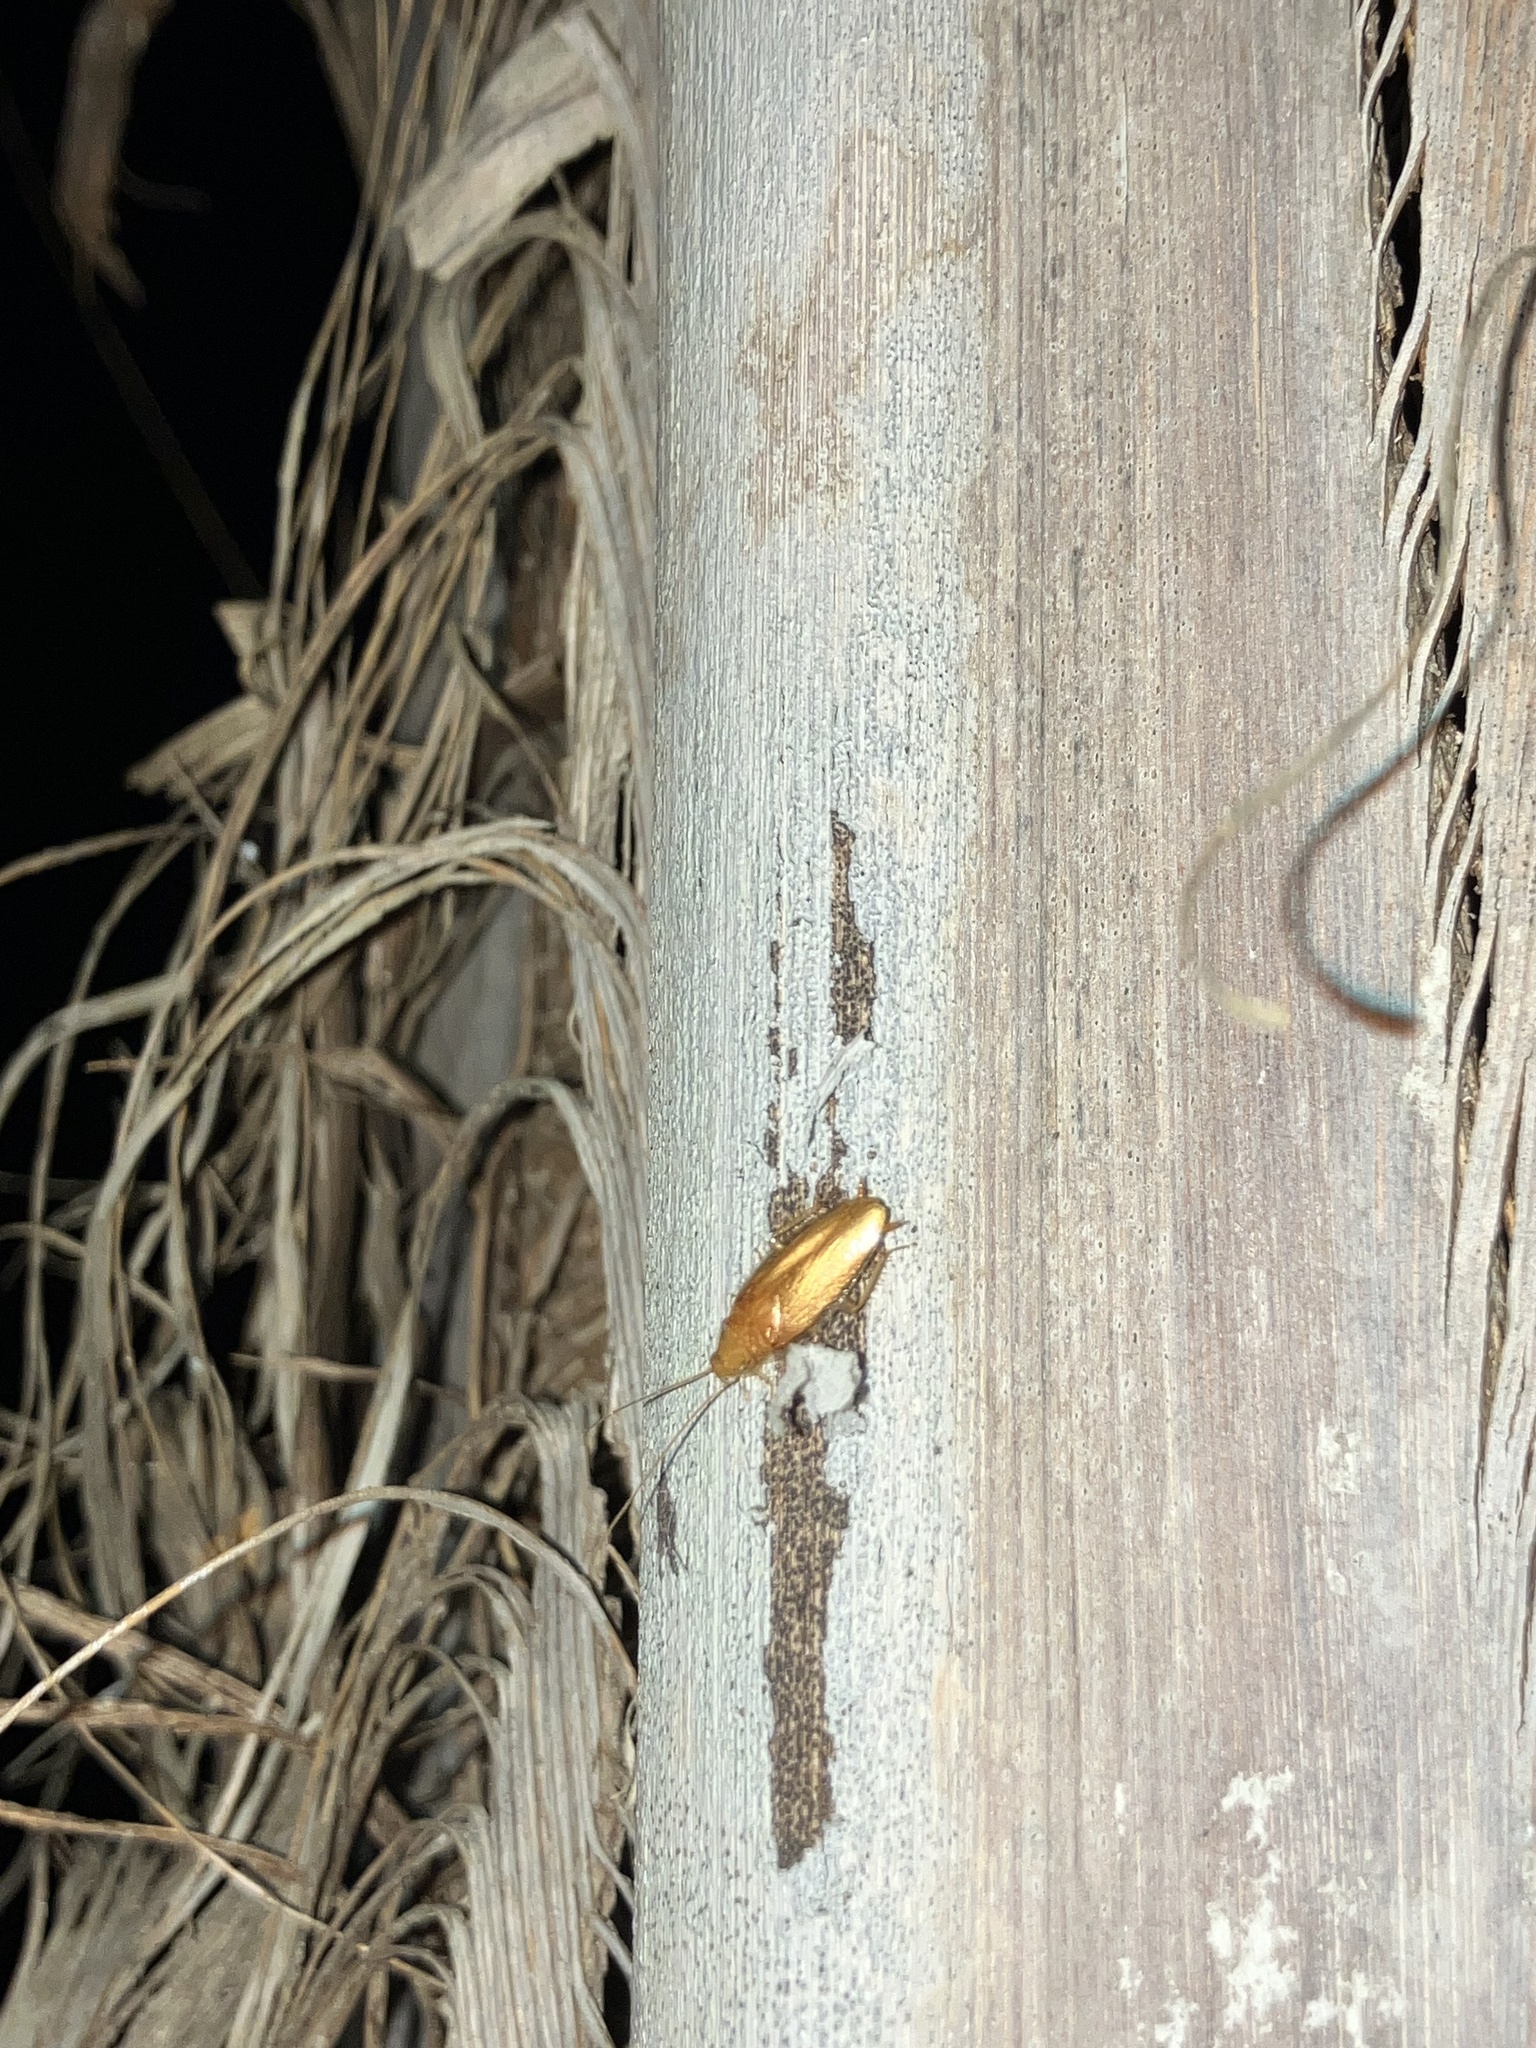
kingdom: Animalia
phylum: Arthropoda
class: Insecta
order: Blattodea
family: Ectobiidae
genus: Chorisoneura
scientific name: Chorisoneura texensis
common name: Small texas cockroach
